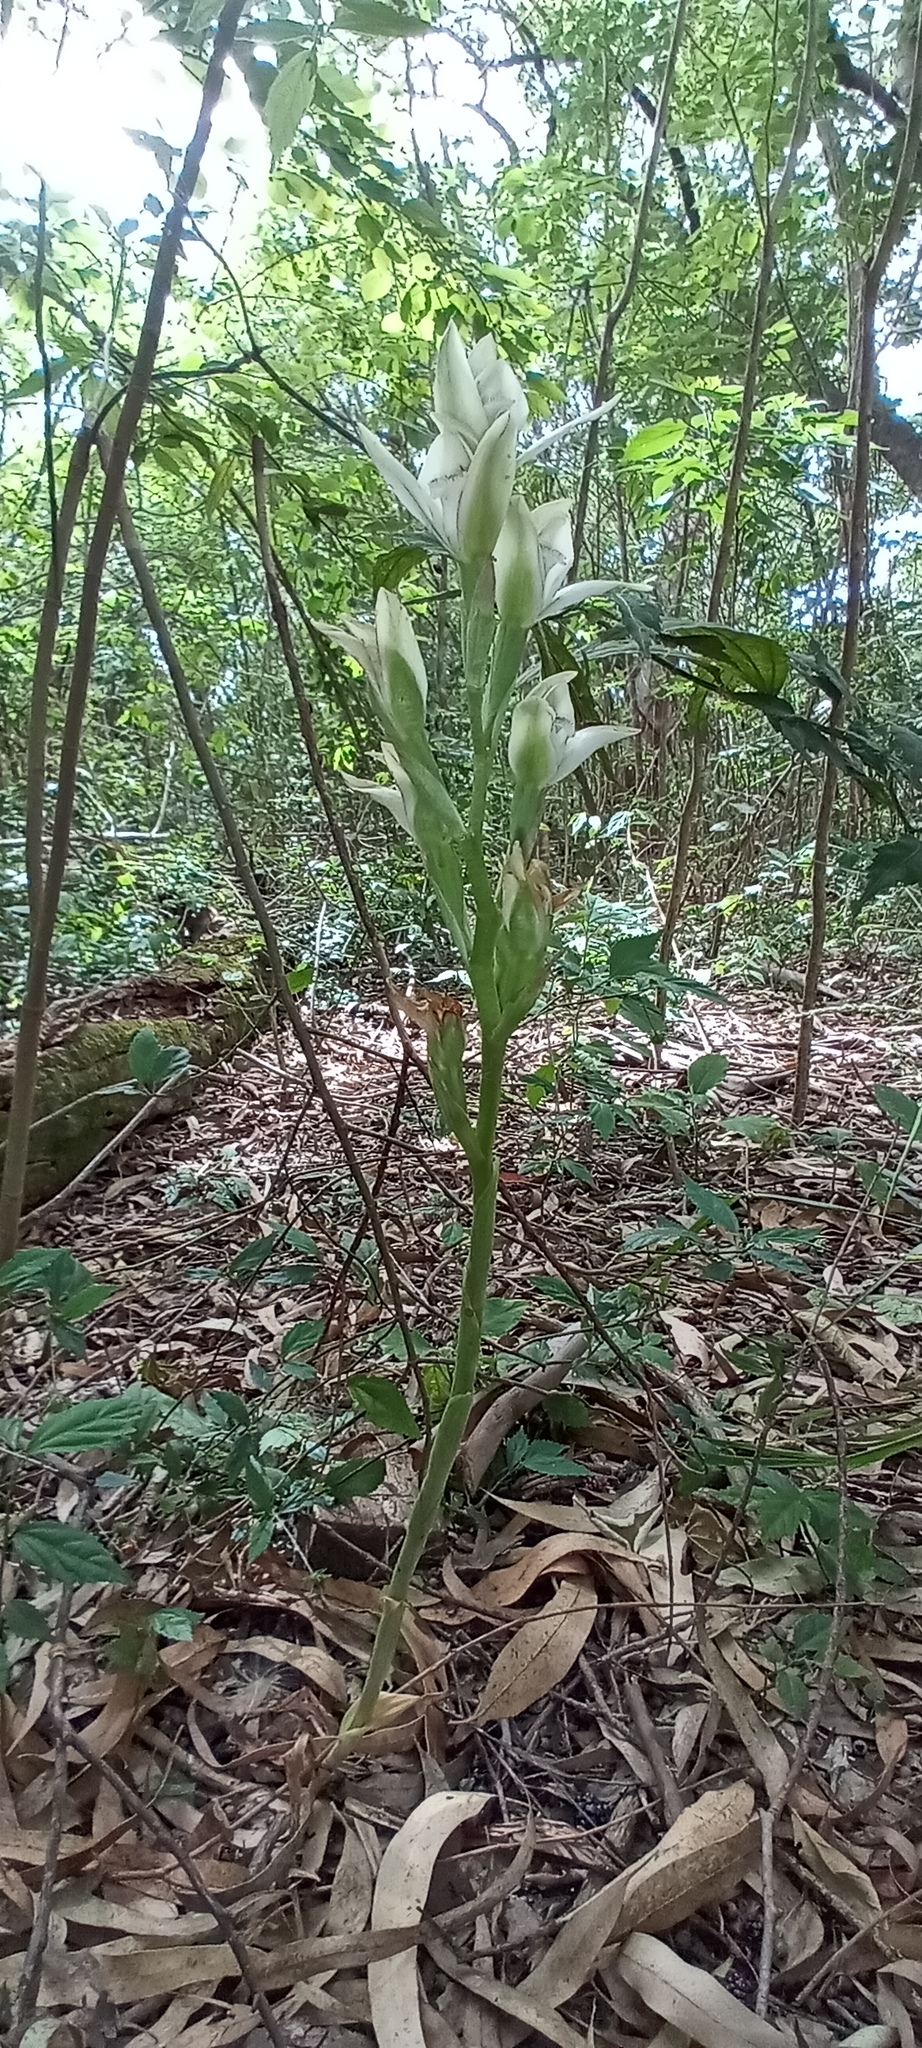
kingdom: Plantae
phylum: Tracheophyta
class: Liliopsida
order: Asparagales
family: Orchidaceae
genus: Chloraea
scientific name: Chloraea membranacea
